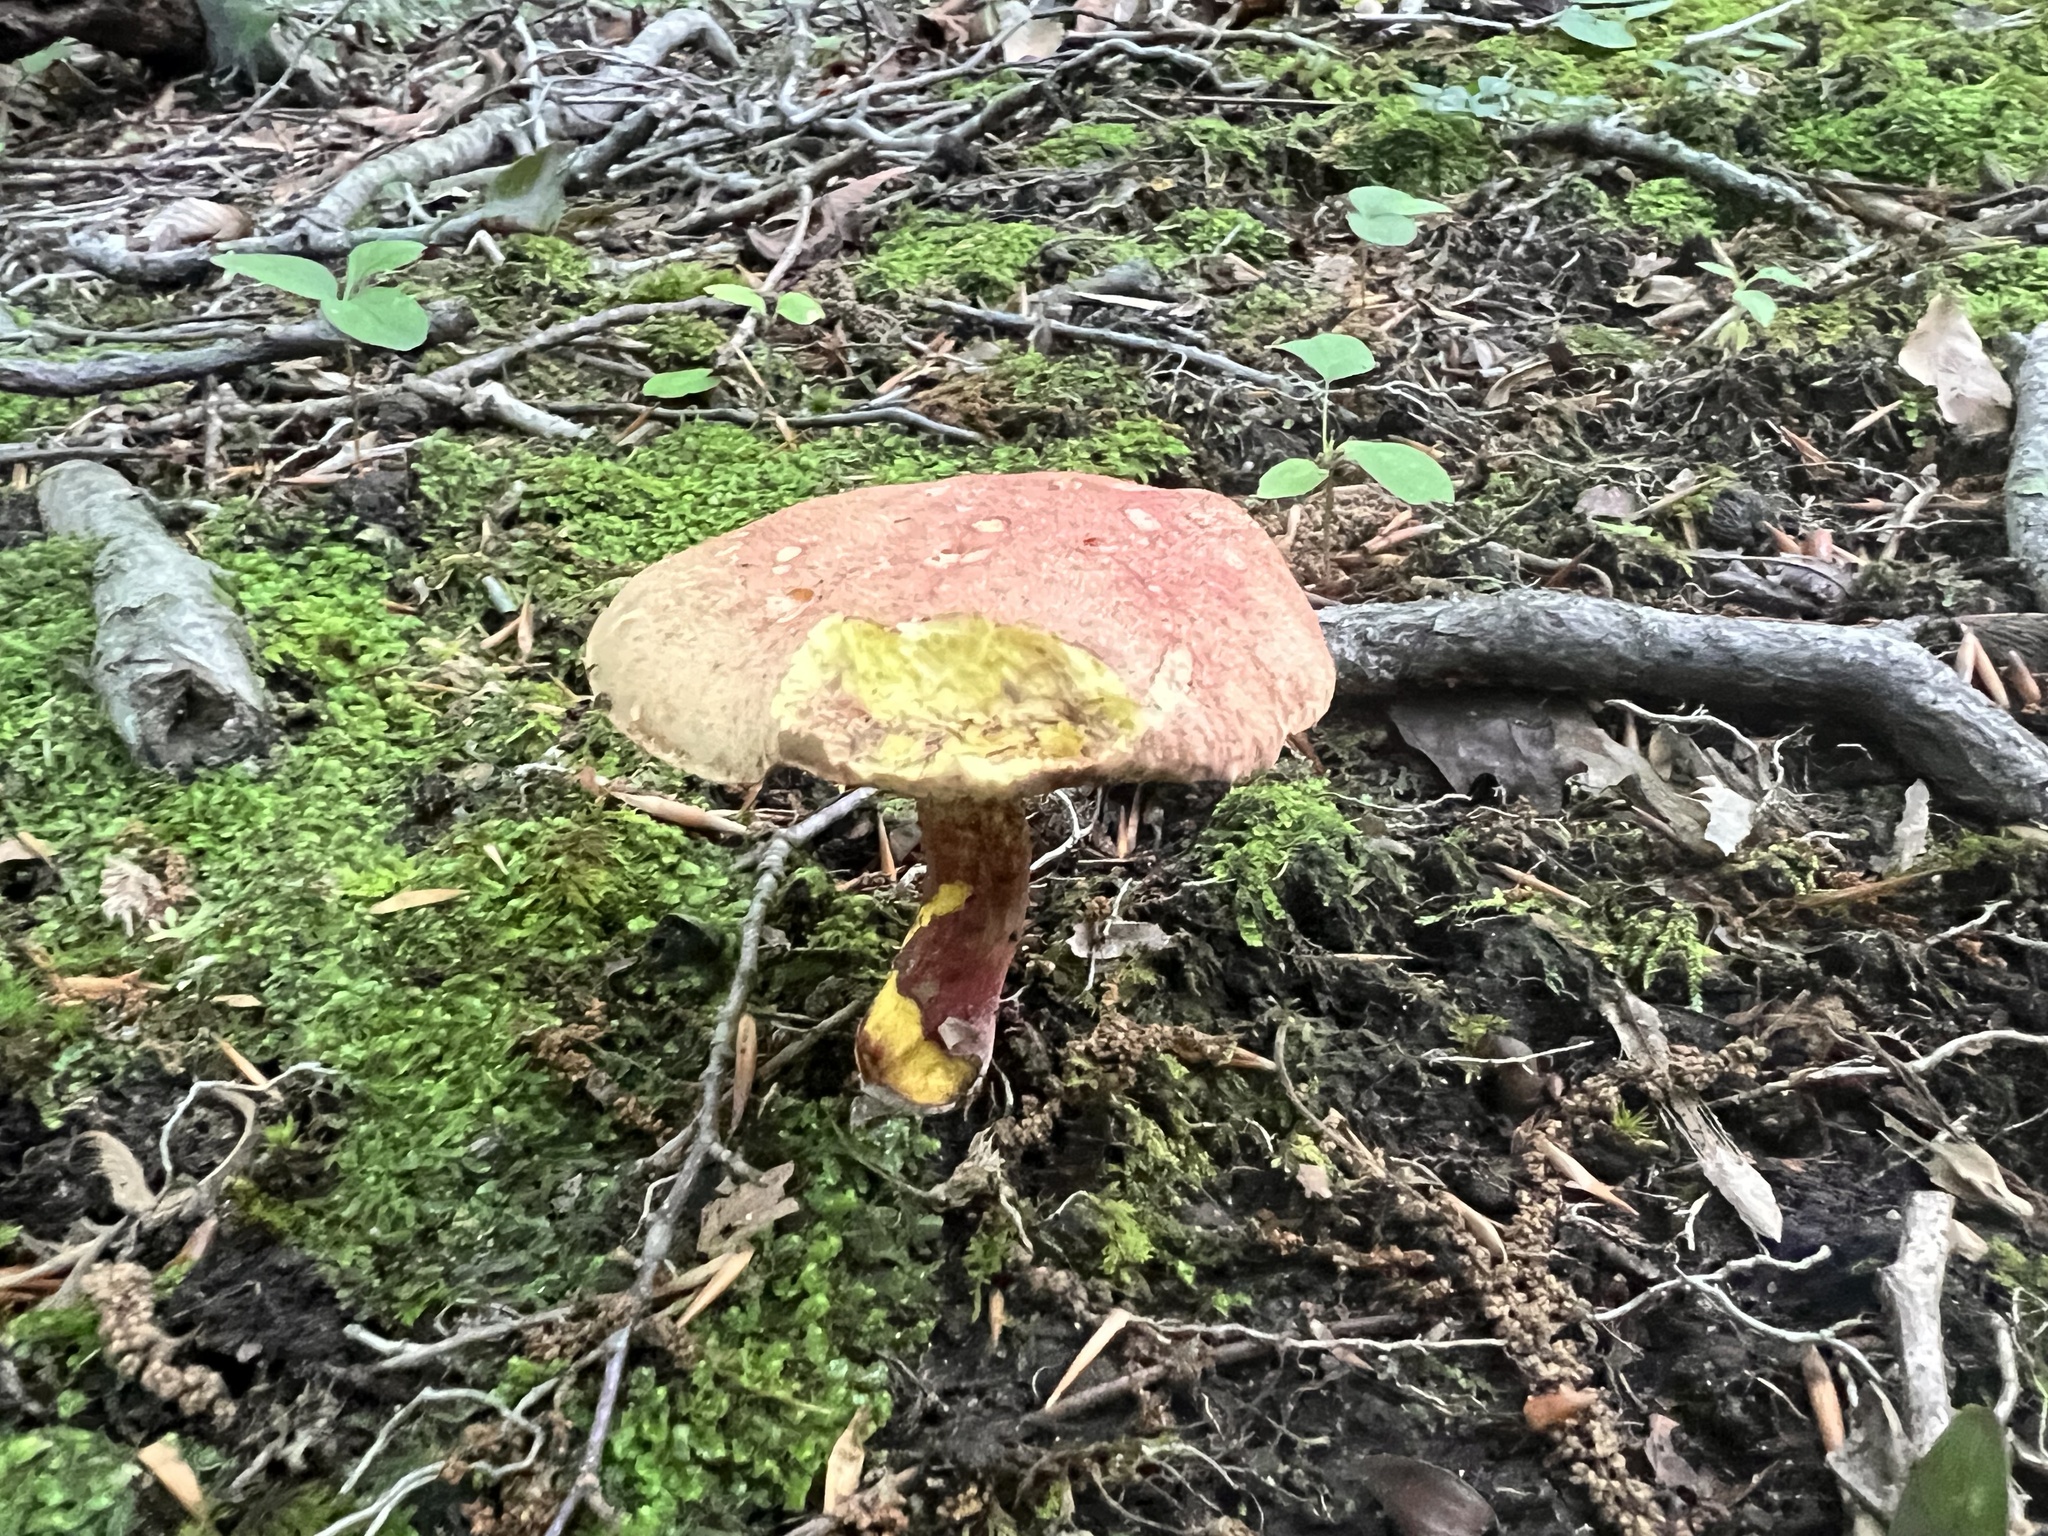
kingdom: Fungi
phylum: Basidiomycota
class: Agaricomycetes
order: Boletales
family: Boletaceae
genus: Baorangia
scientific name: Baorangia bicolor
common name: Two-colored bolete
